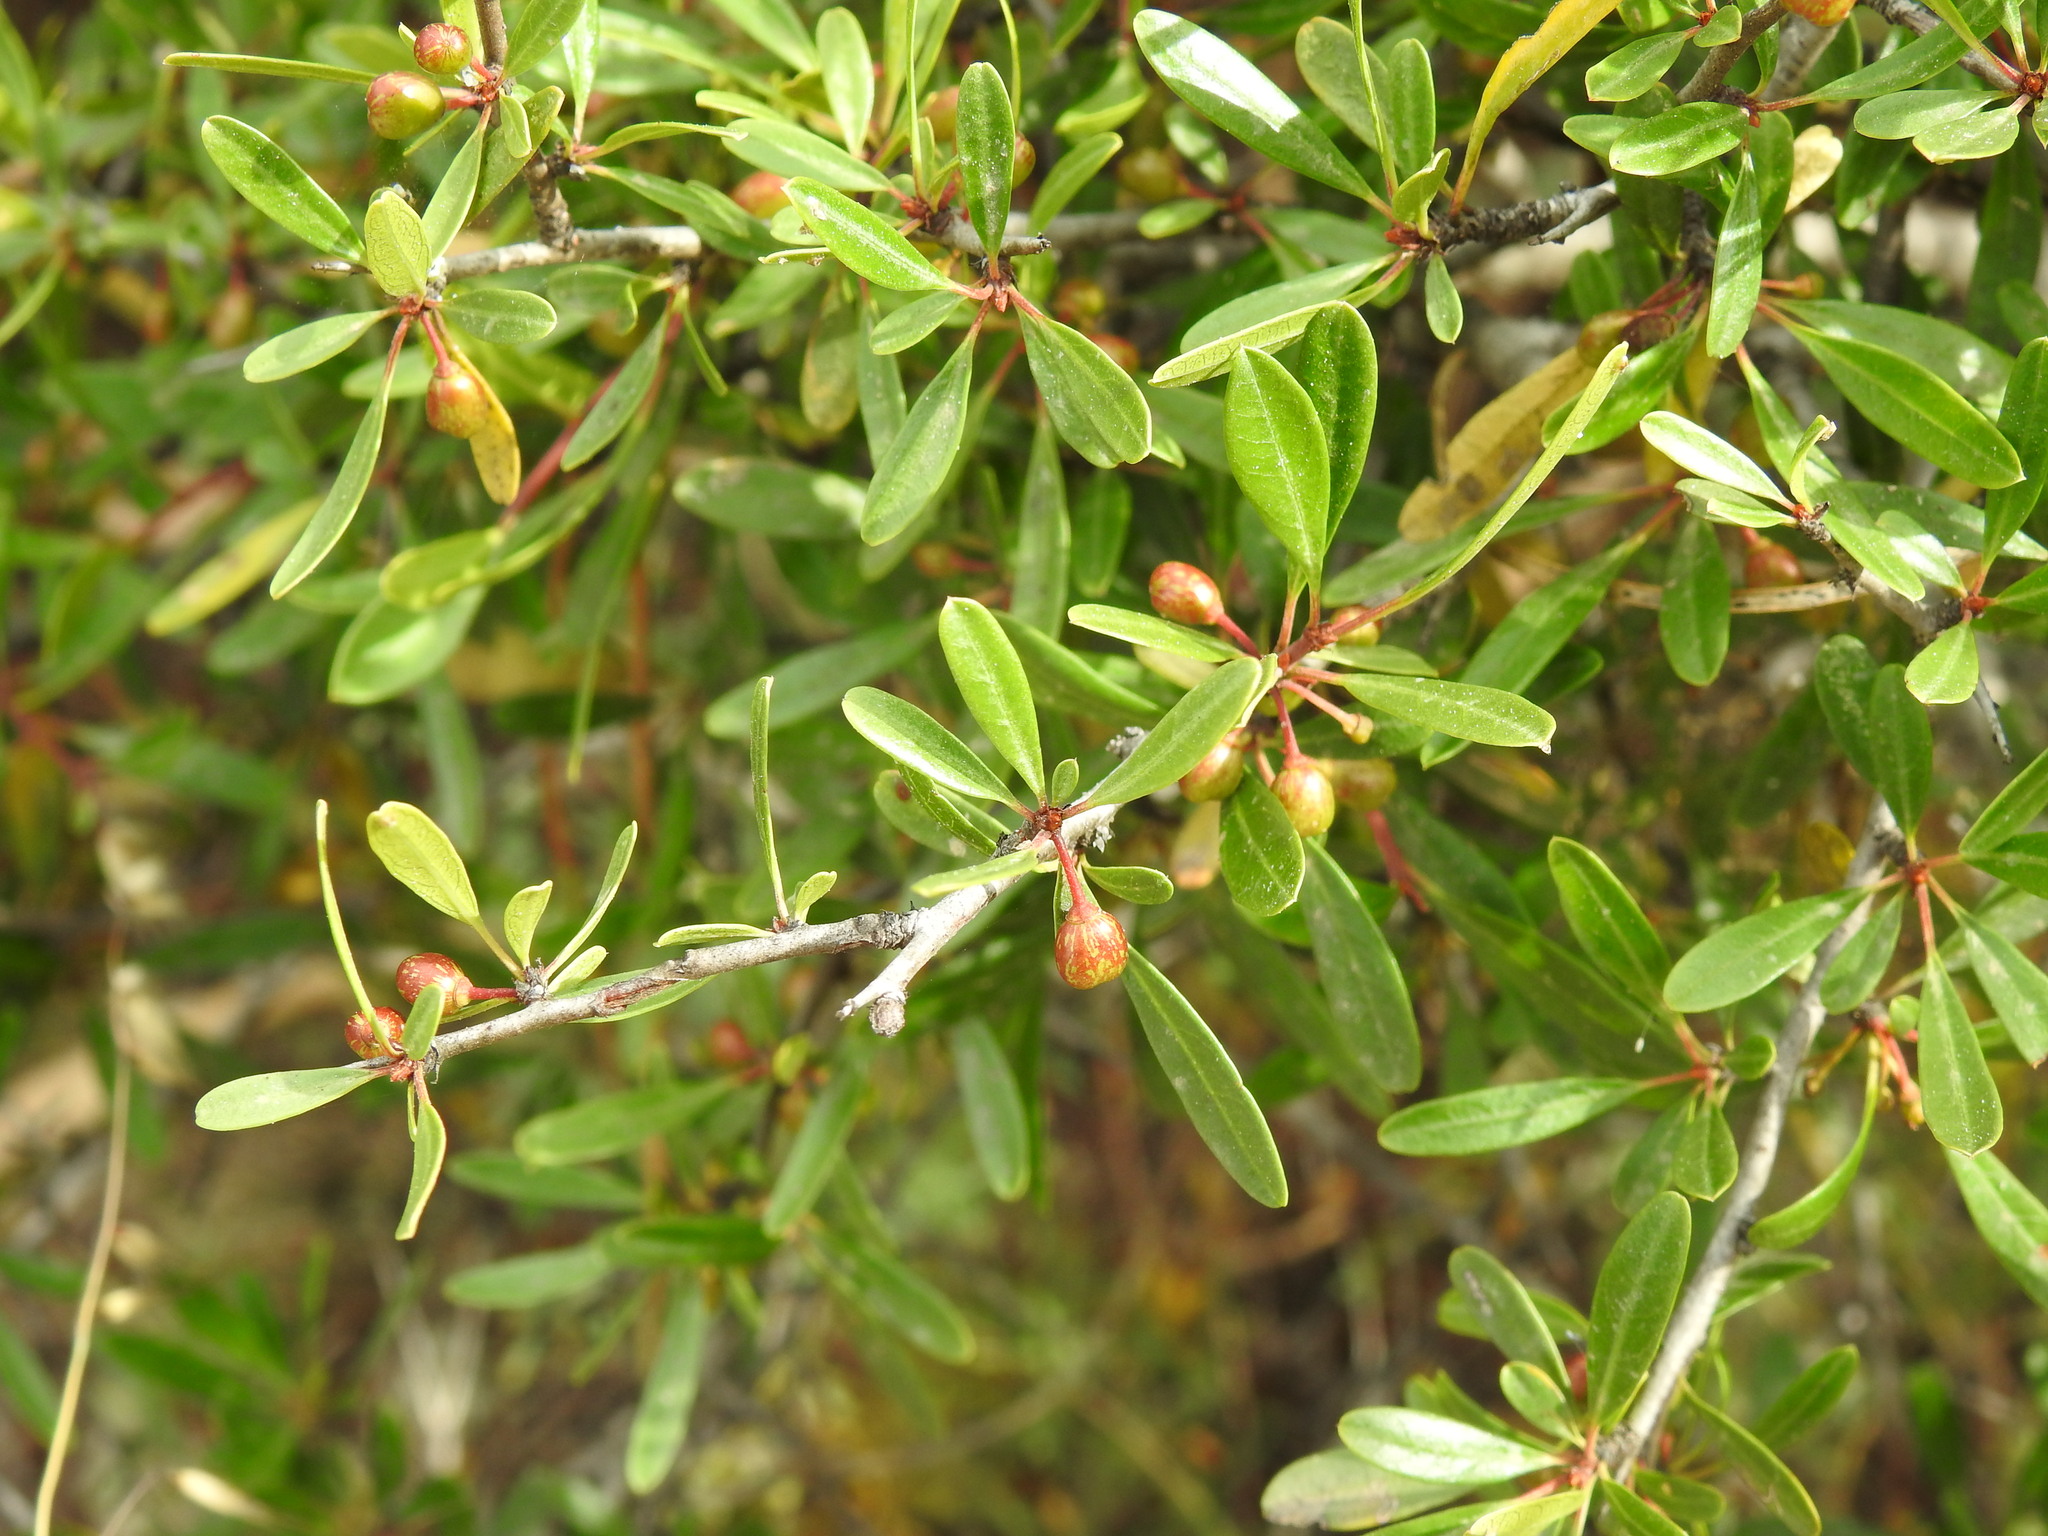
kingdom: Plantae
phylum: Tracheophyta
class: Magnoliopsida
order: Rosales
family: Rhamnaceae
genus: Rhamnus
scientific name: Rhamnus oleoides
